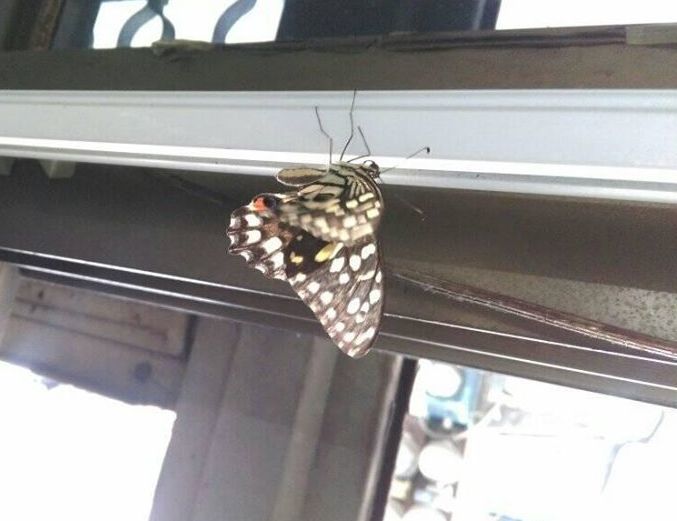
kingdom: Animalia
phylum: Arthropoda
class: Insecta
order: Lepidoptera
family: Papilionidae
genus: Papilio
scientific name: Papilio demoleus
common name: Lime butterfly
